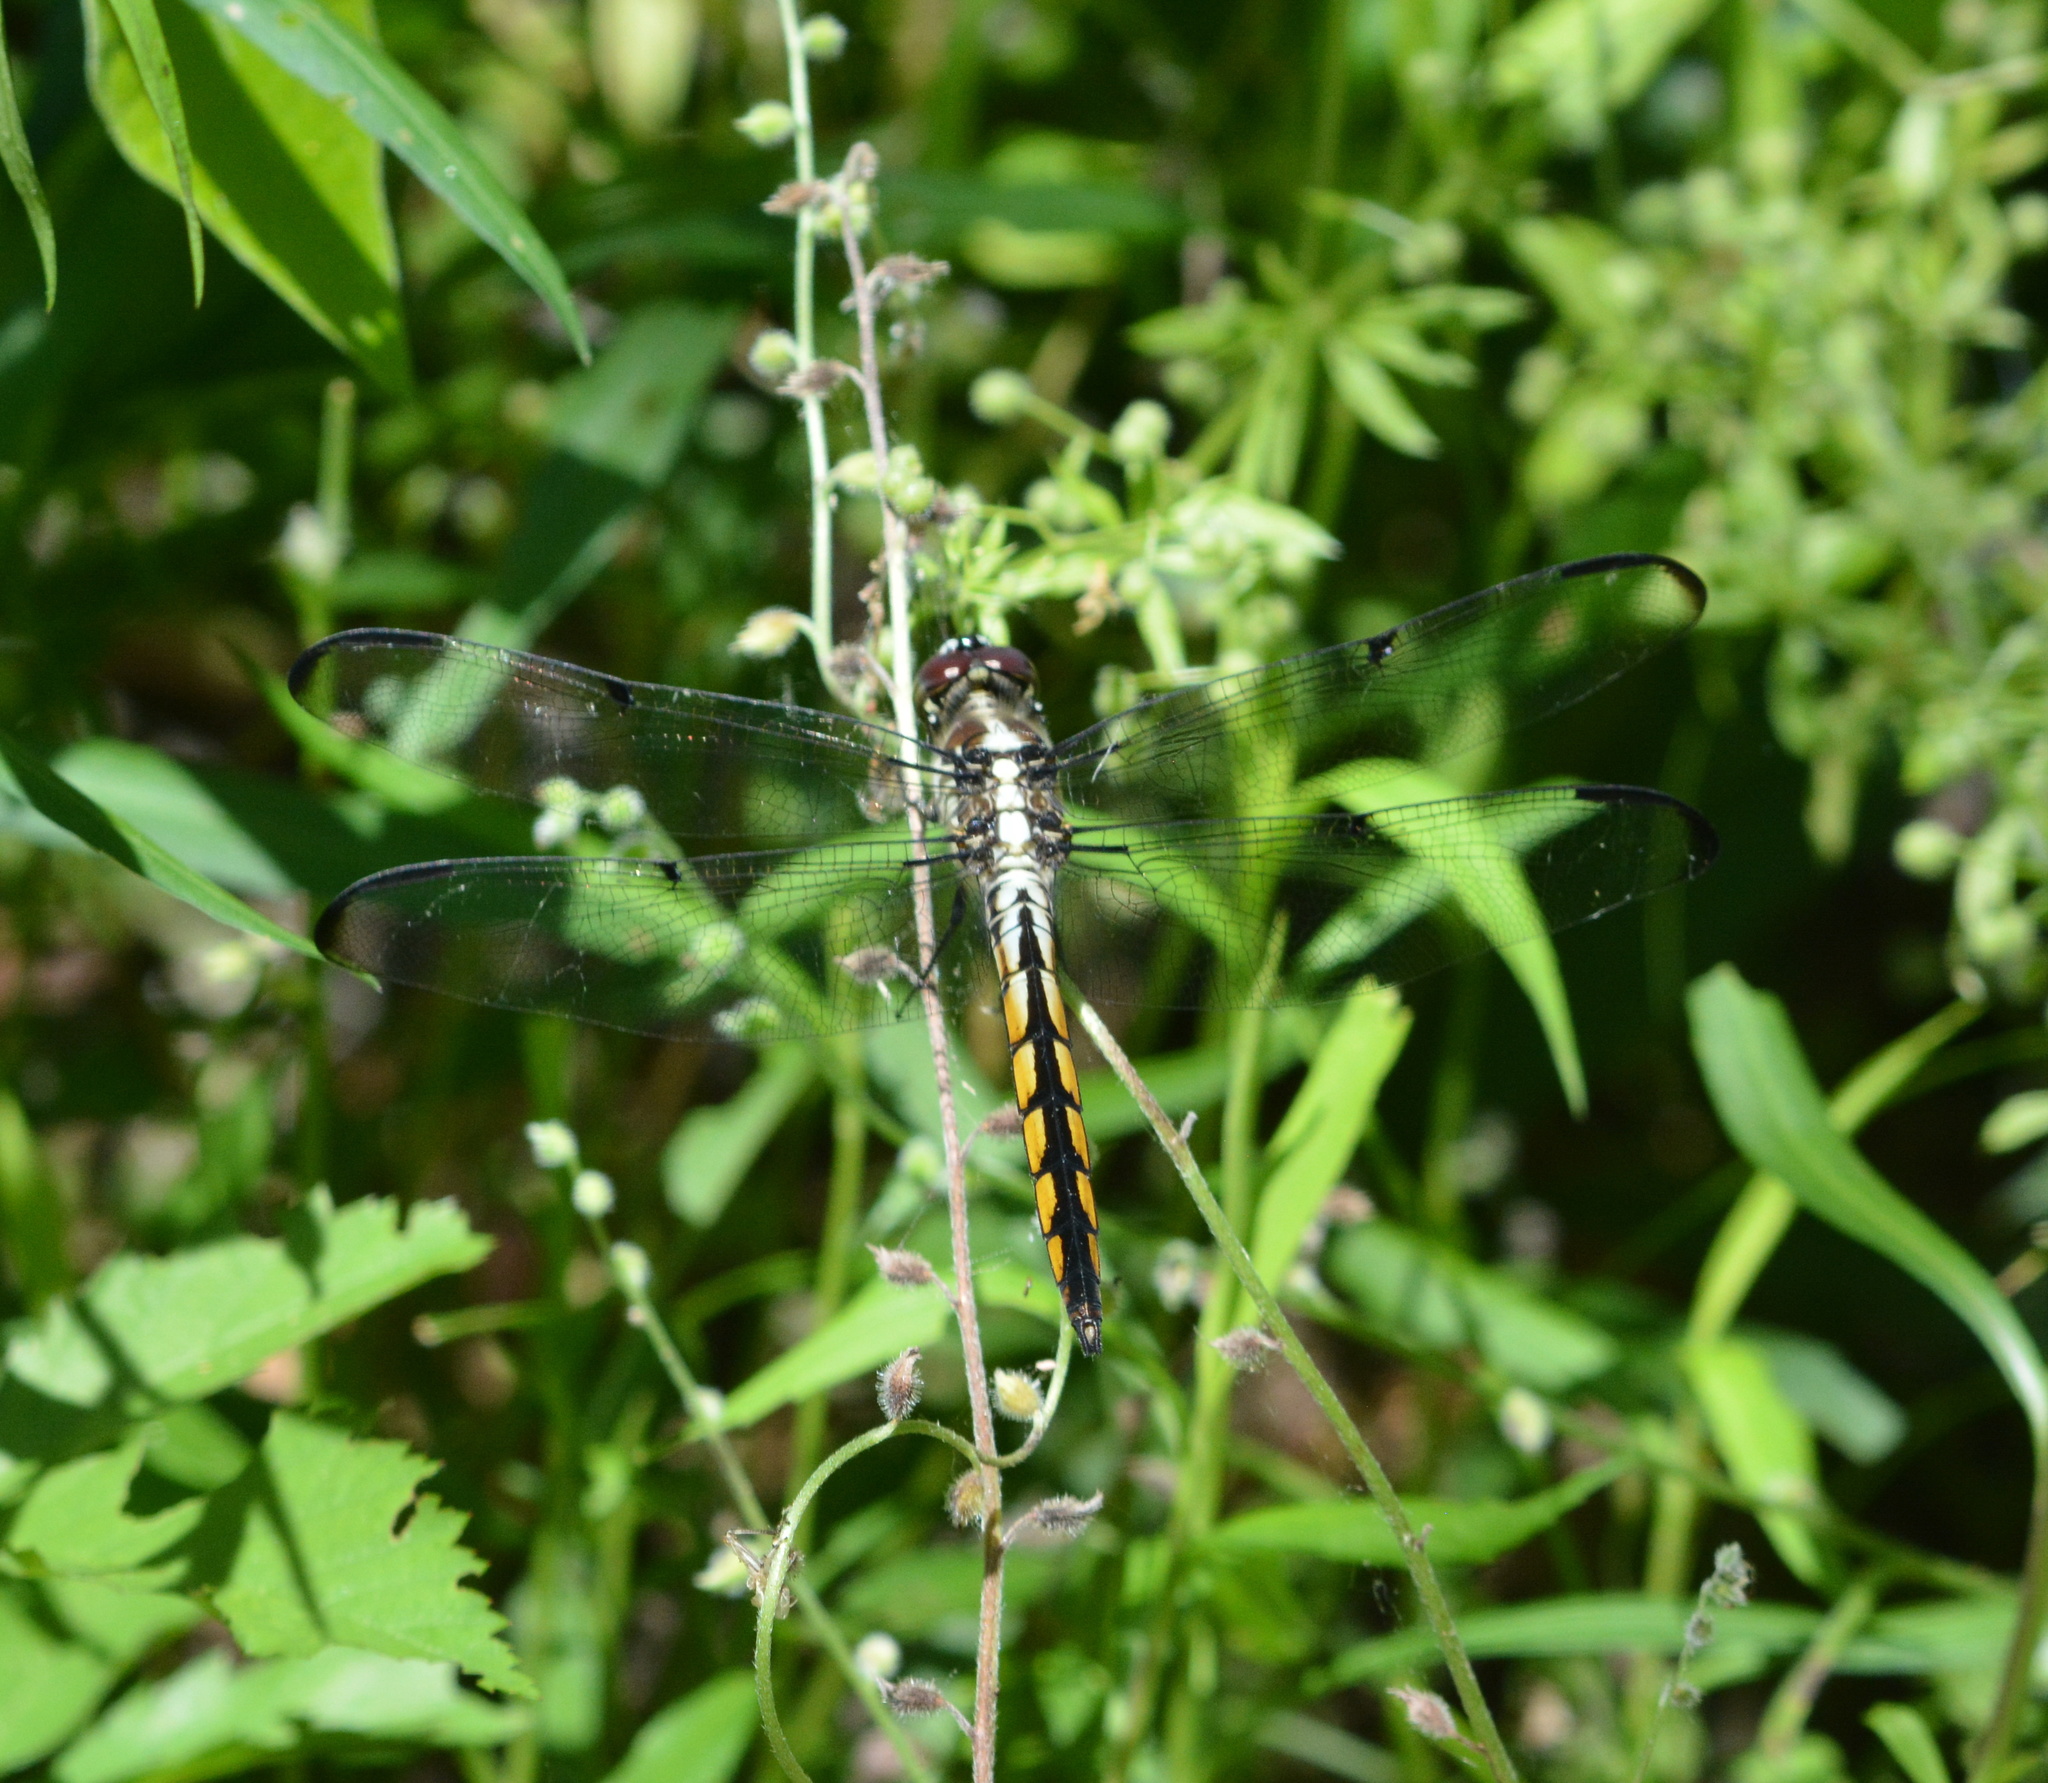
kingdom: Animalia
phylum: Arthropoda
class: Insecta
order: Odonata
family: Libellulidae
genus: Libellula
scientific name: Libellula vibrans
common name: Great blue skimmer
